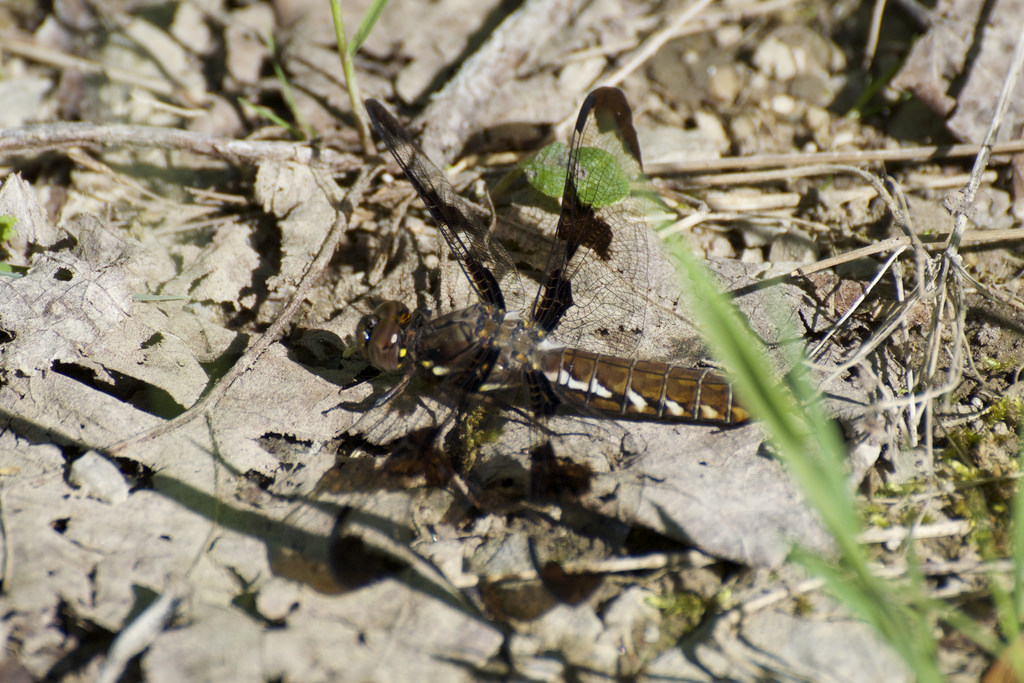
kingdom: Animalia
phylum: Arthropoda
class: Insecta
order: Odonata
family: Libellulidae
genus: Plathemis
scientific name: Plathemis lydia
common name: Common whitetail
